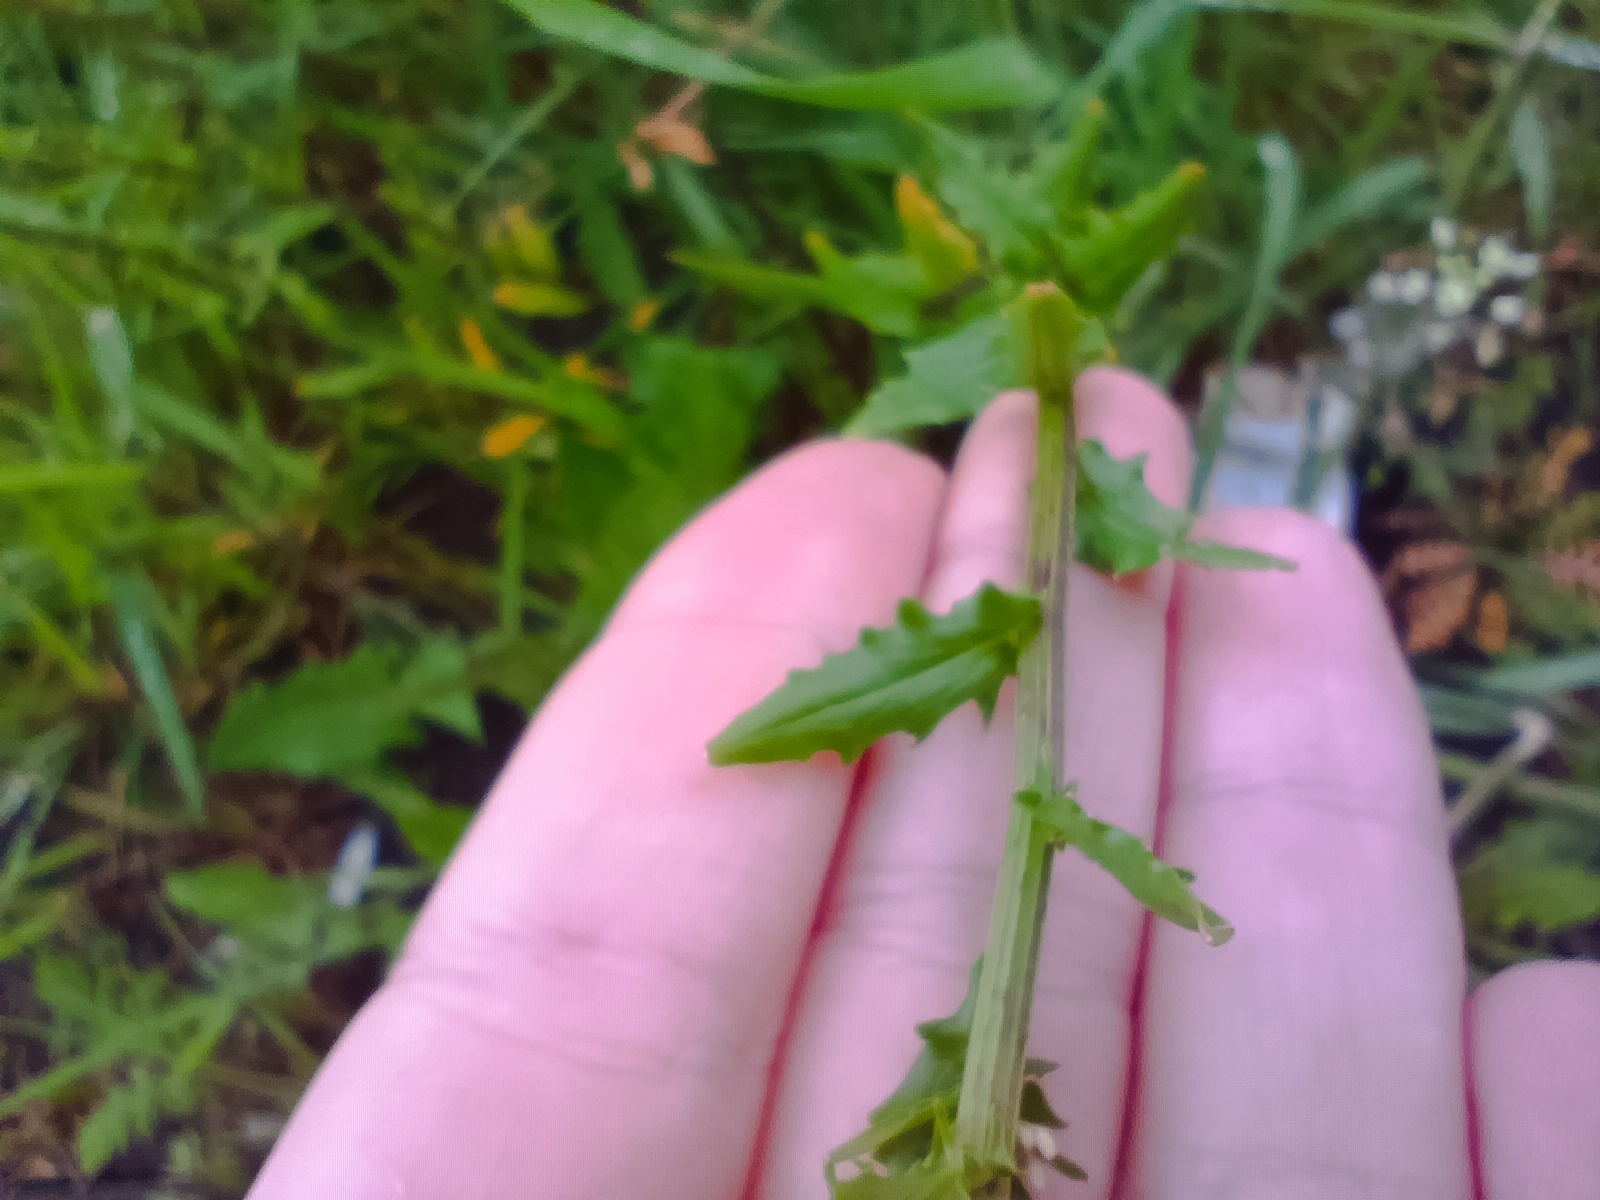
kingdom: Plantae
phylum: Tracheophyta
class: Magnoliopsida
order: Brassicales
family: Brassicaceae
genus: Thlaspi
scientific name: Thlaspi arvense
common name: Field pennycress
